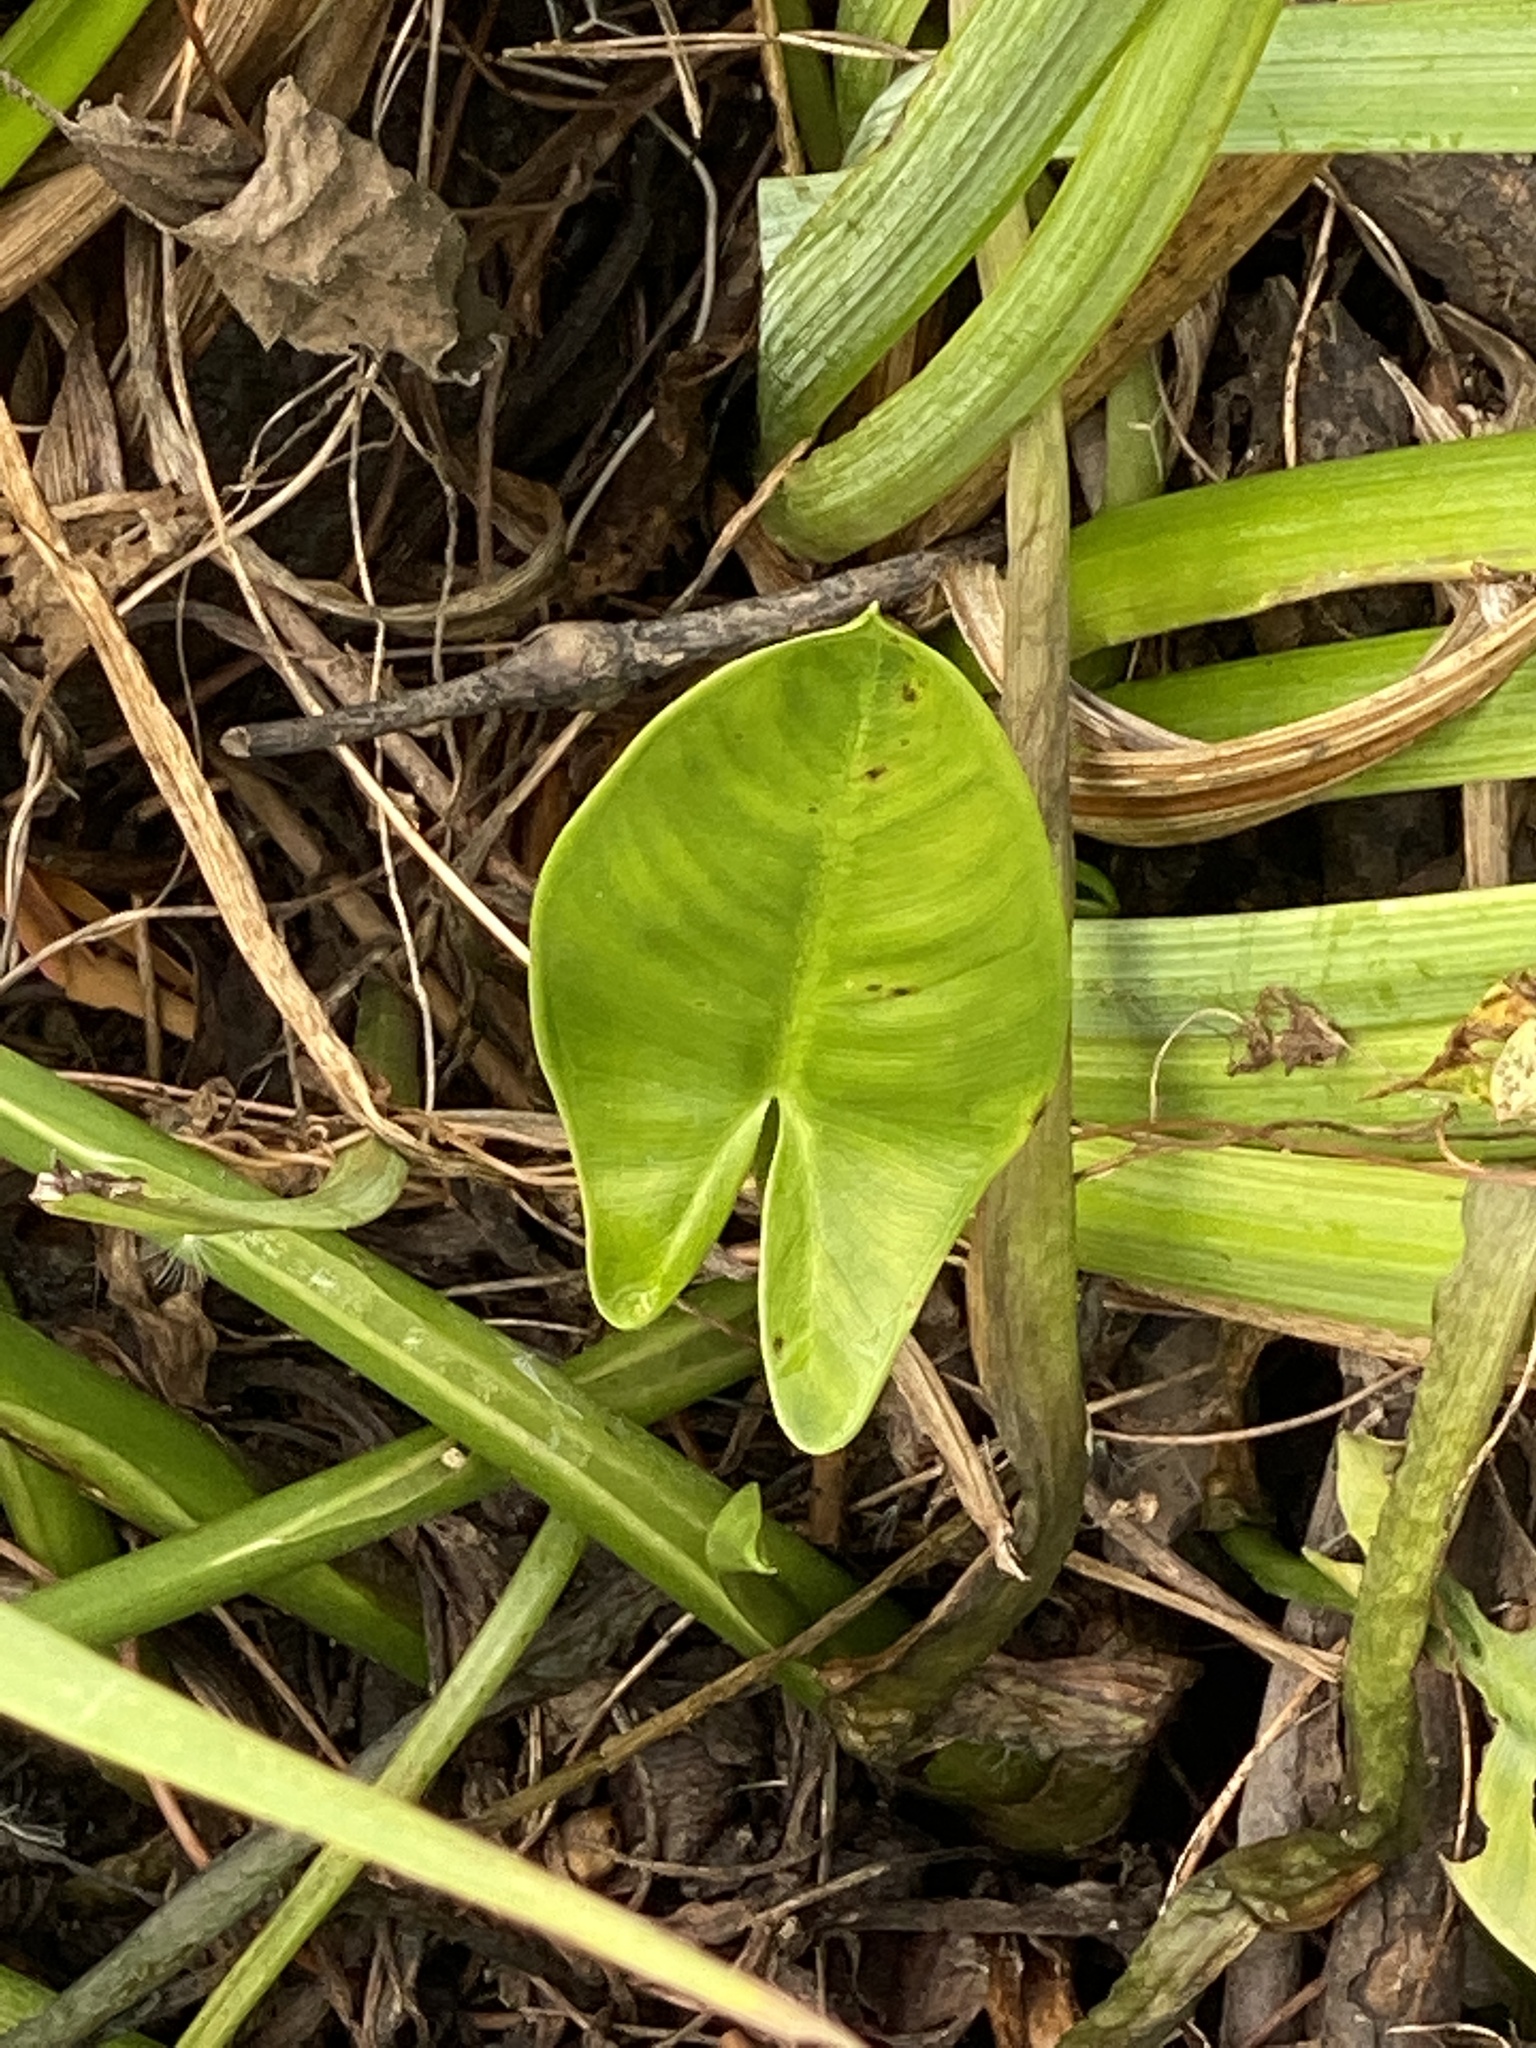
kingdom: Plantae
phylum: Tracheophyta
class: Liliopsida
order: Alismatales
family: Araceae
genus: Peltandra
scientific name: Peltandra virginica
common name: Arrow arum
